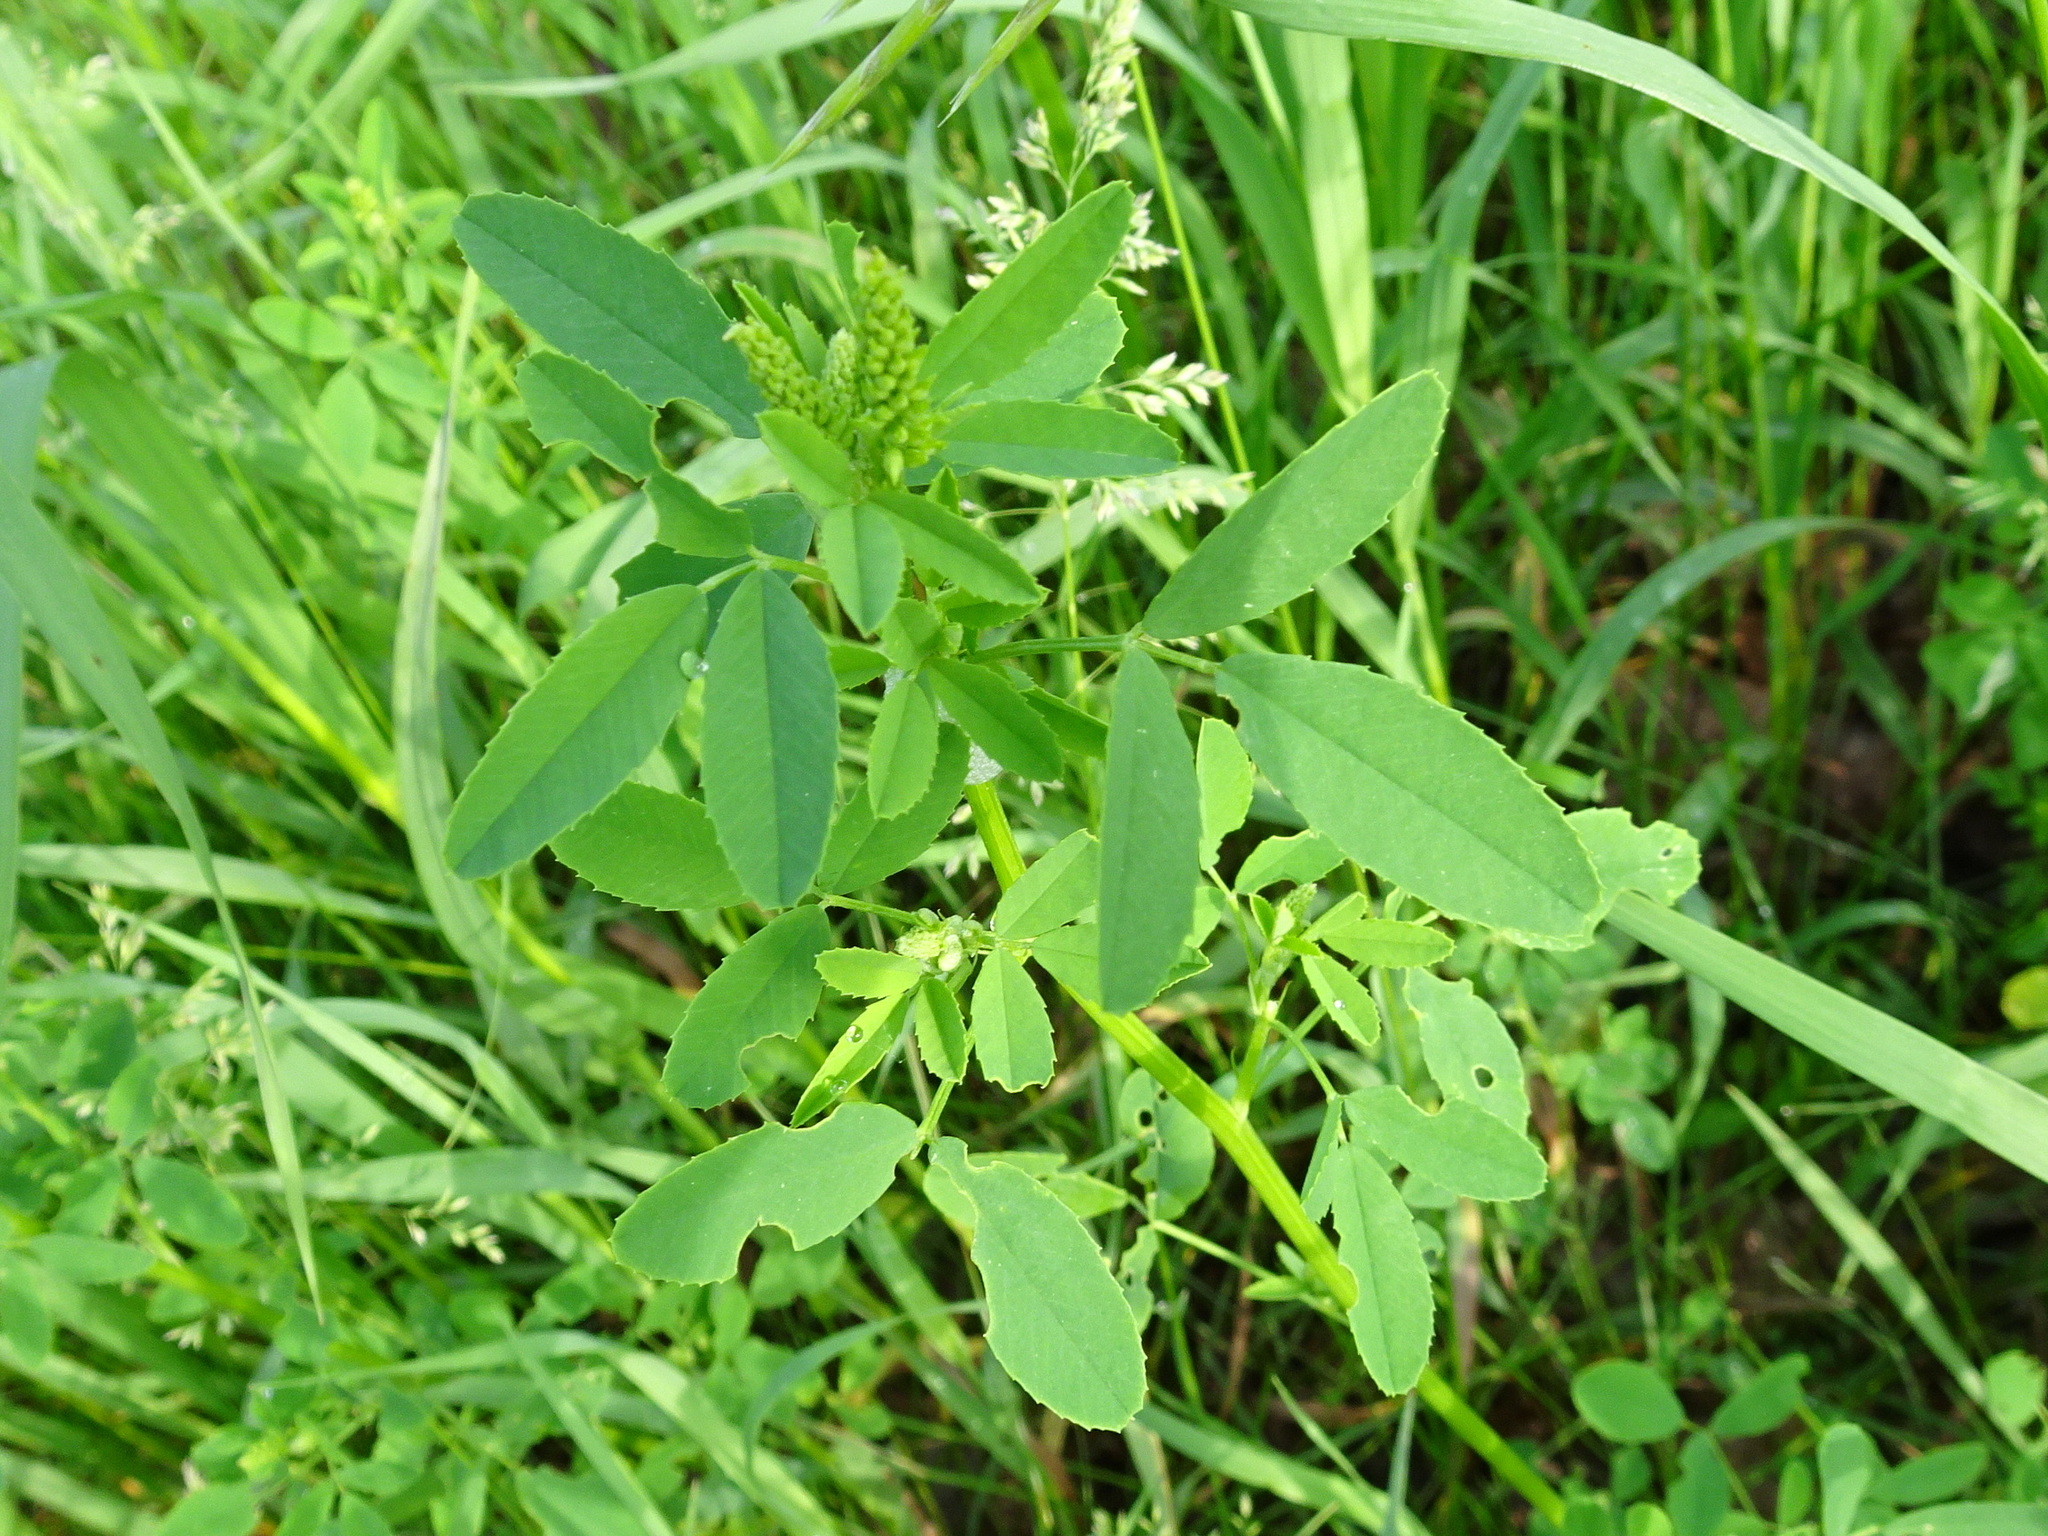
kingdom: Plantae
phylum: Tracheophyta
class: Magnoliopsida
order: Fabales
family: Fabaceae
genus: Melilotus
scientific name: Melilotus officinalis
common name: Sweetclover
